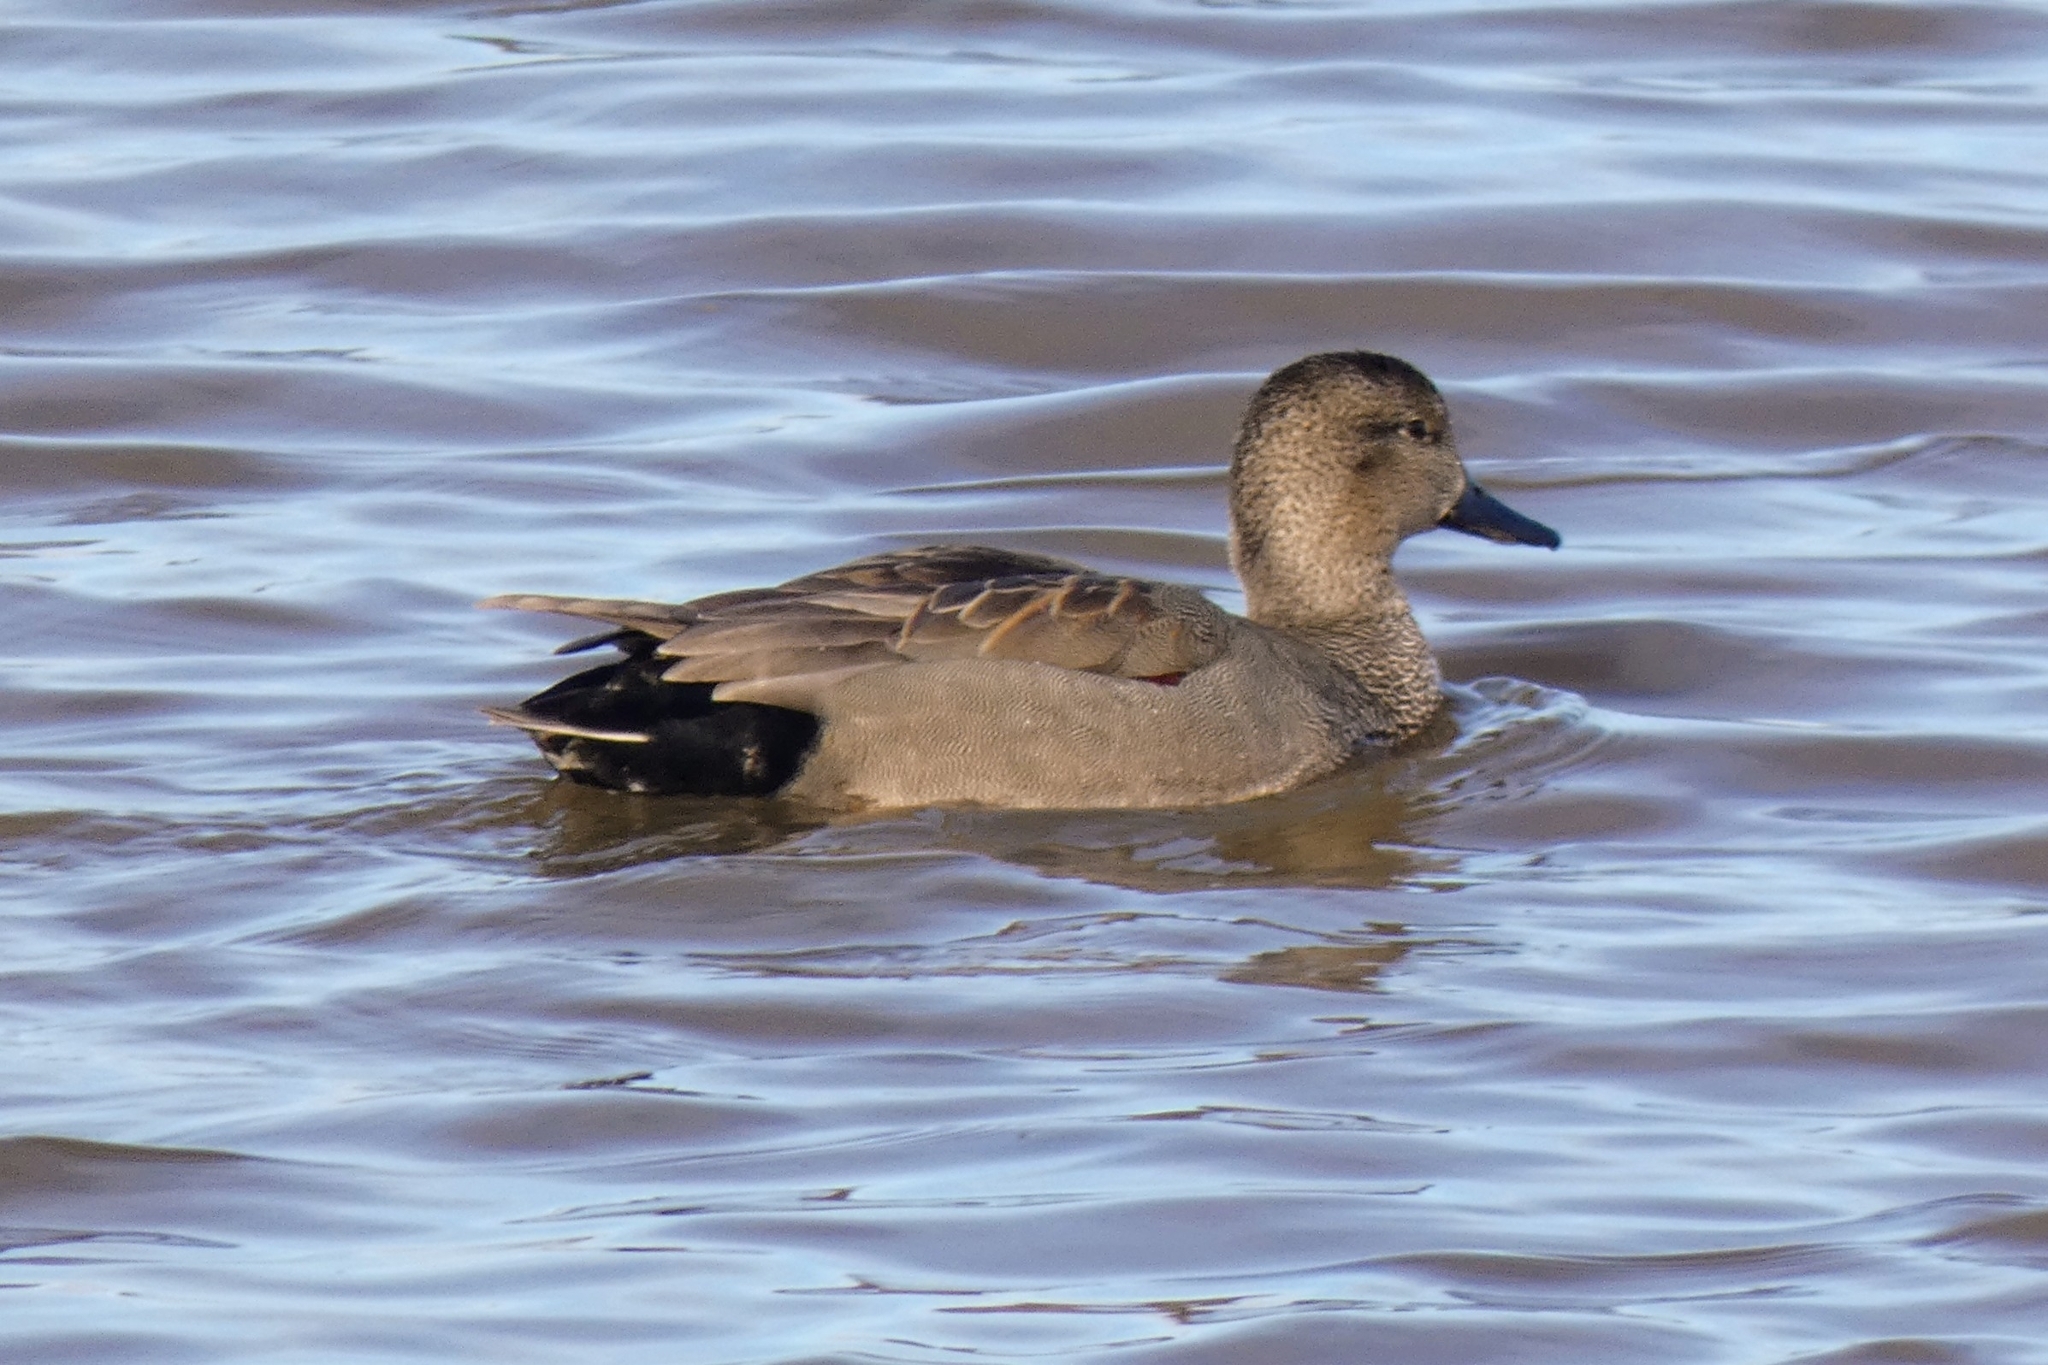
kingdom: Animalia
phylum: Chordata
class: Aves
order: Anseriformes
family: Anatidae
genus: Mareca
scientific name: Mareca strepera
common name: Gadwall
